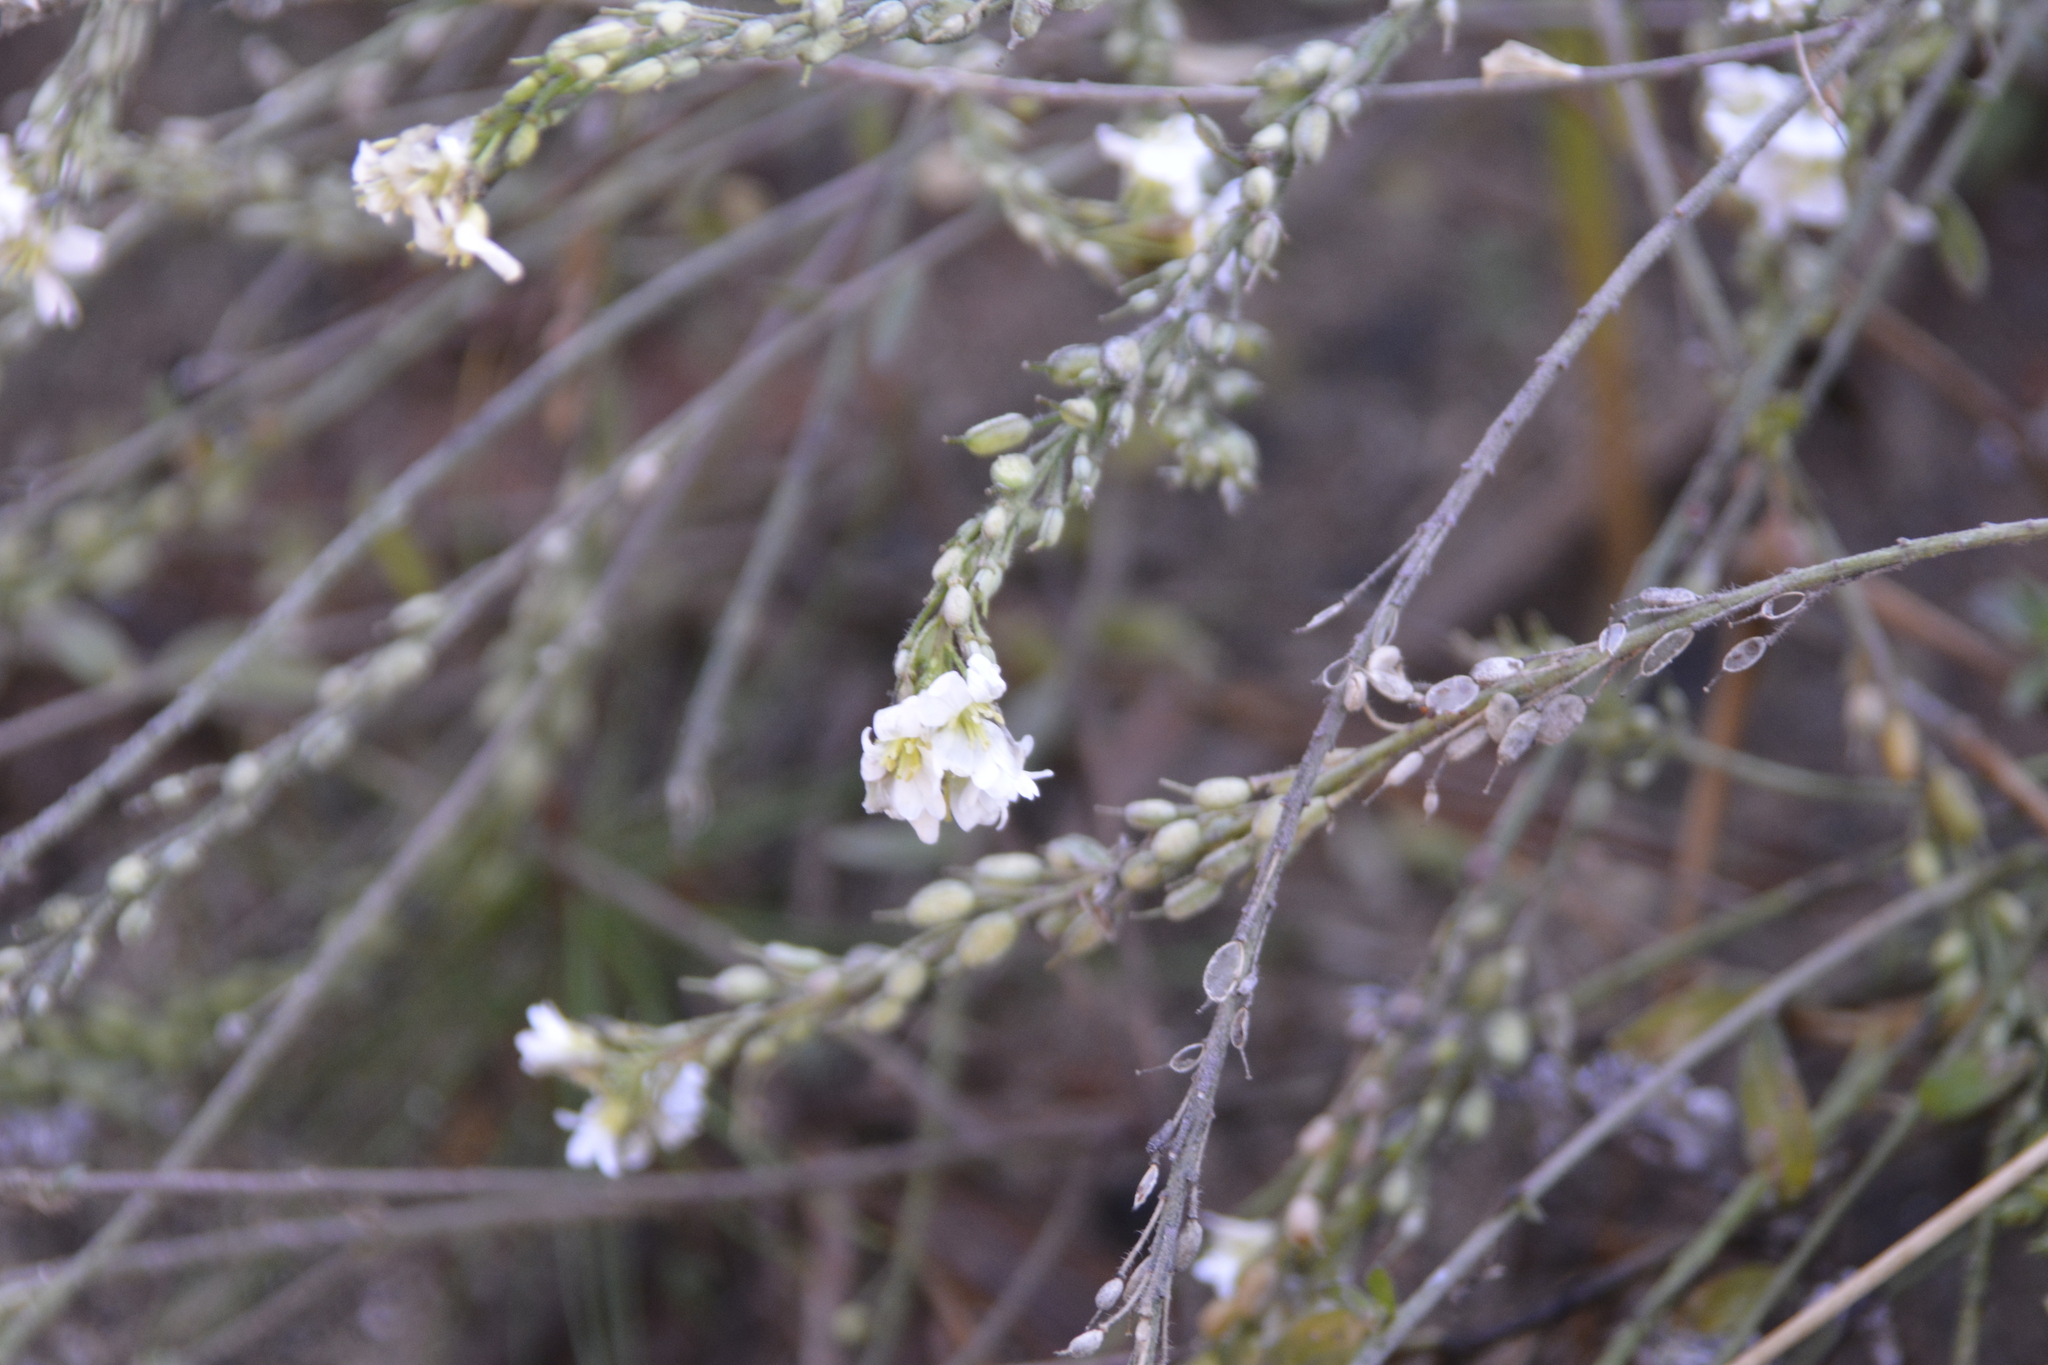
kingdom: Plantae
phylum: Tracheophyta
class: Magnoliopsida
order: Brassicales
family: Brassicaceae
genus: Berteroa
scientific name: Berteroa incana
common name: Hoary alison
